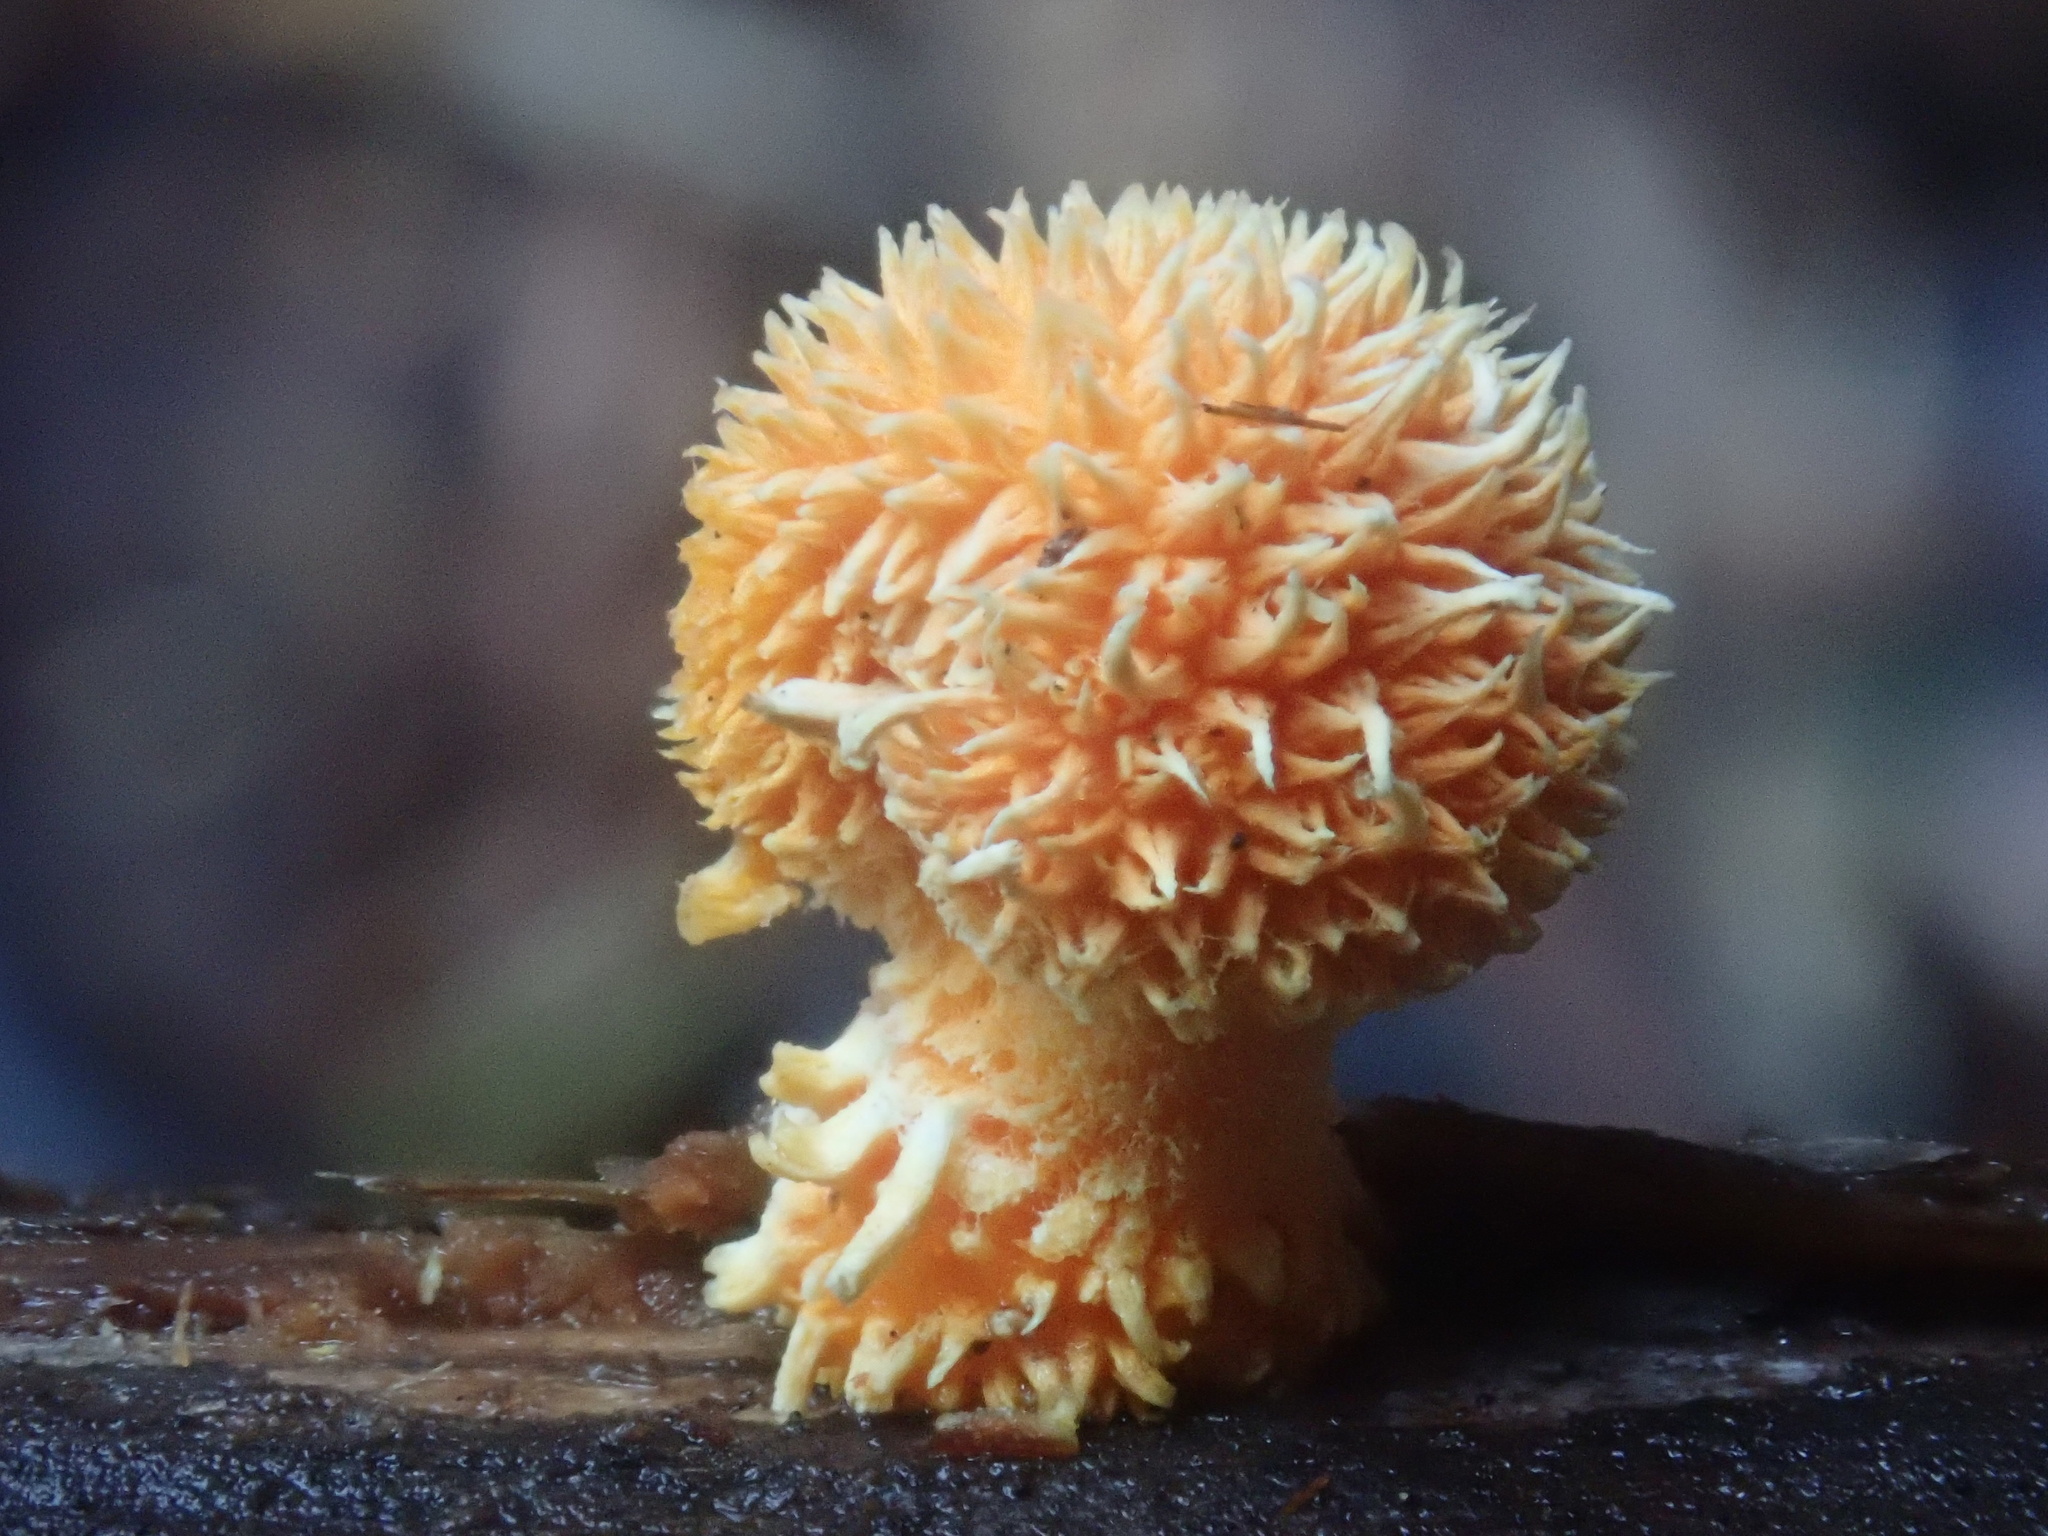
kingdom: Fungi
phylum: Basidiomycota
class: Agaricomycetes
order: Agaricales
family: Physalacriaceae
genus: Cyptotrama
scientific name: Cyptotrama asprata
